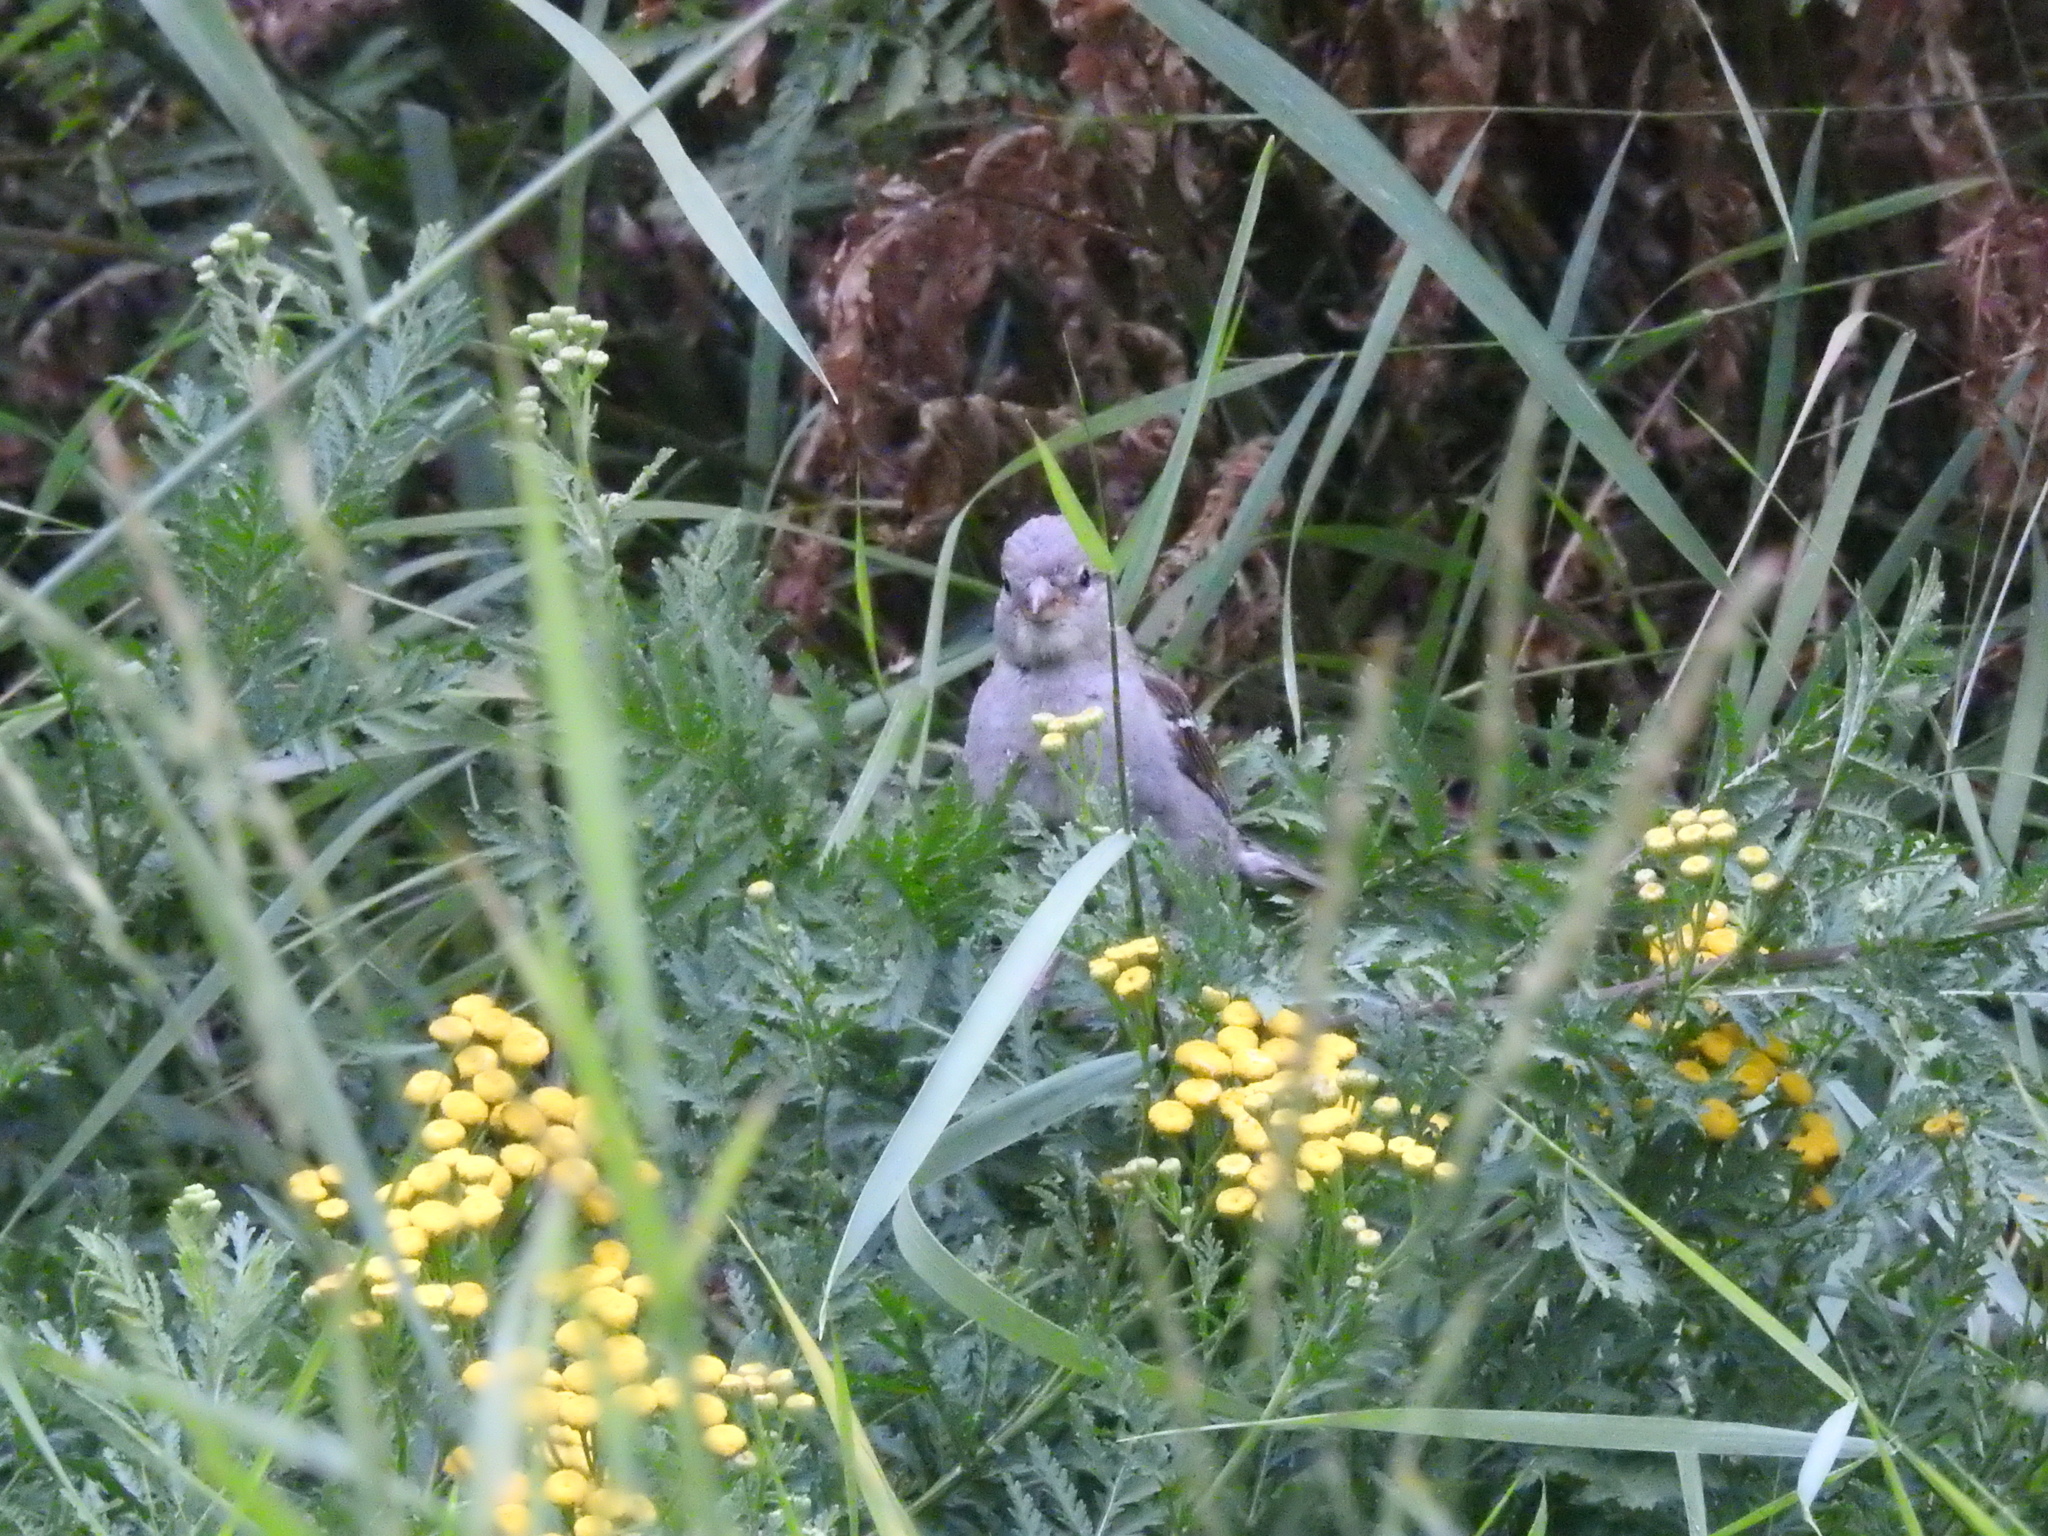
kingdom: Animalia
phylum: Chordata
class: Aves
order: Passeriformes
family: Passeridae
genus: Passer
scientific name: Passer domesticus
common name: House sparrow
